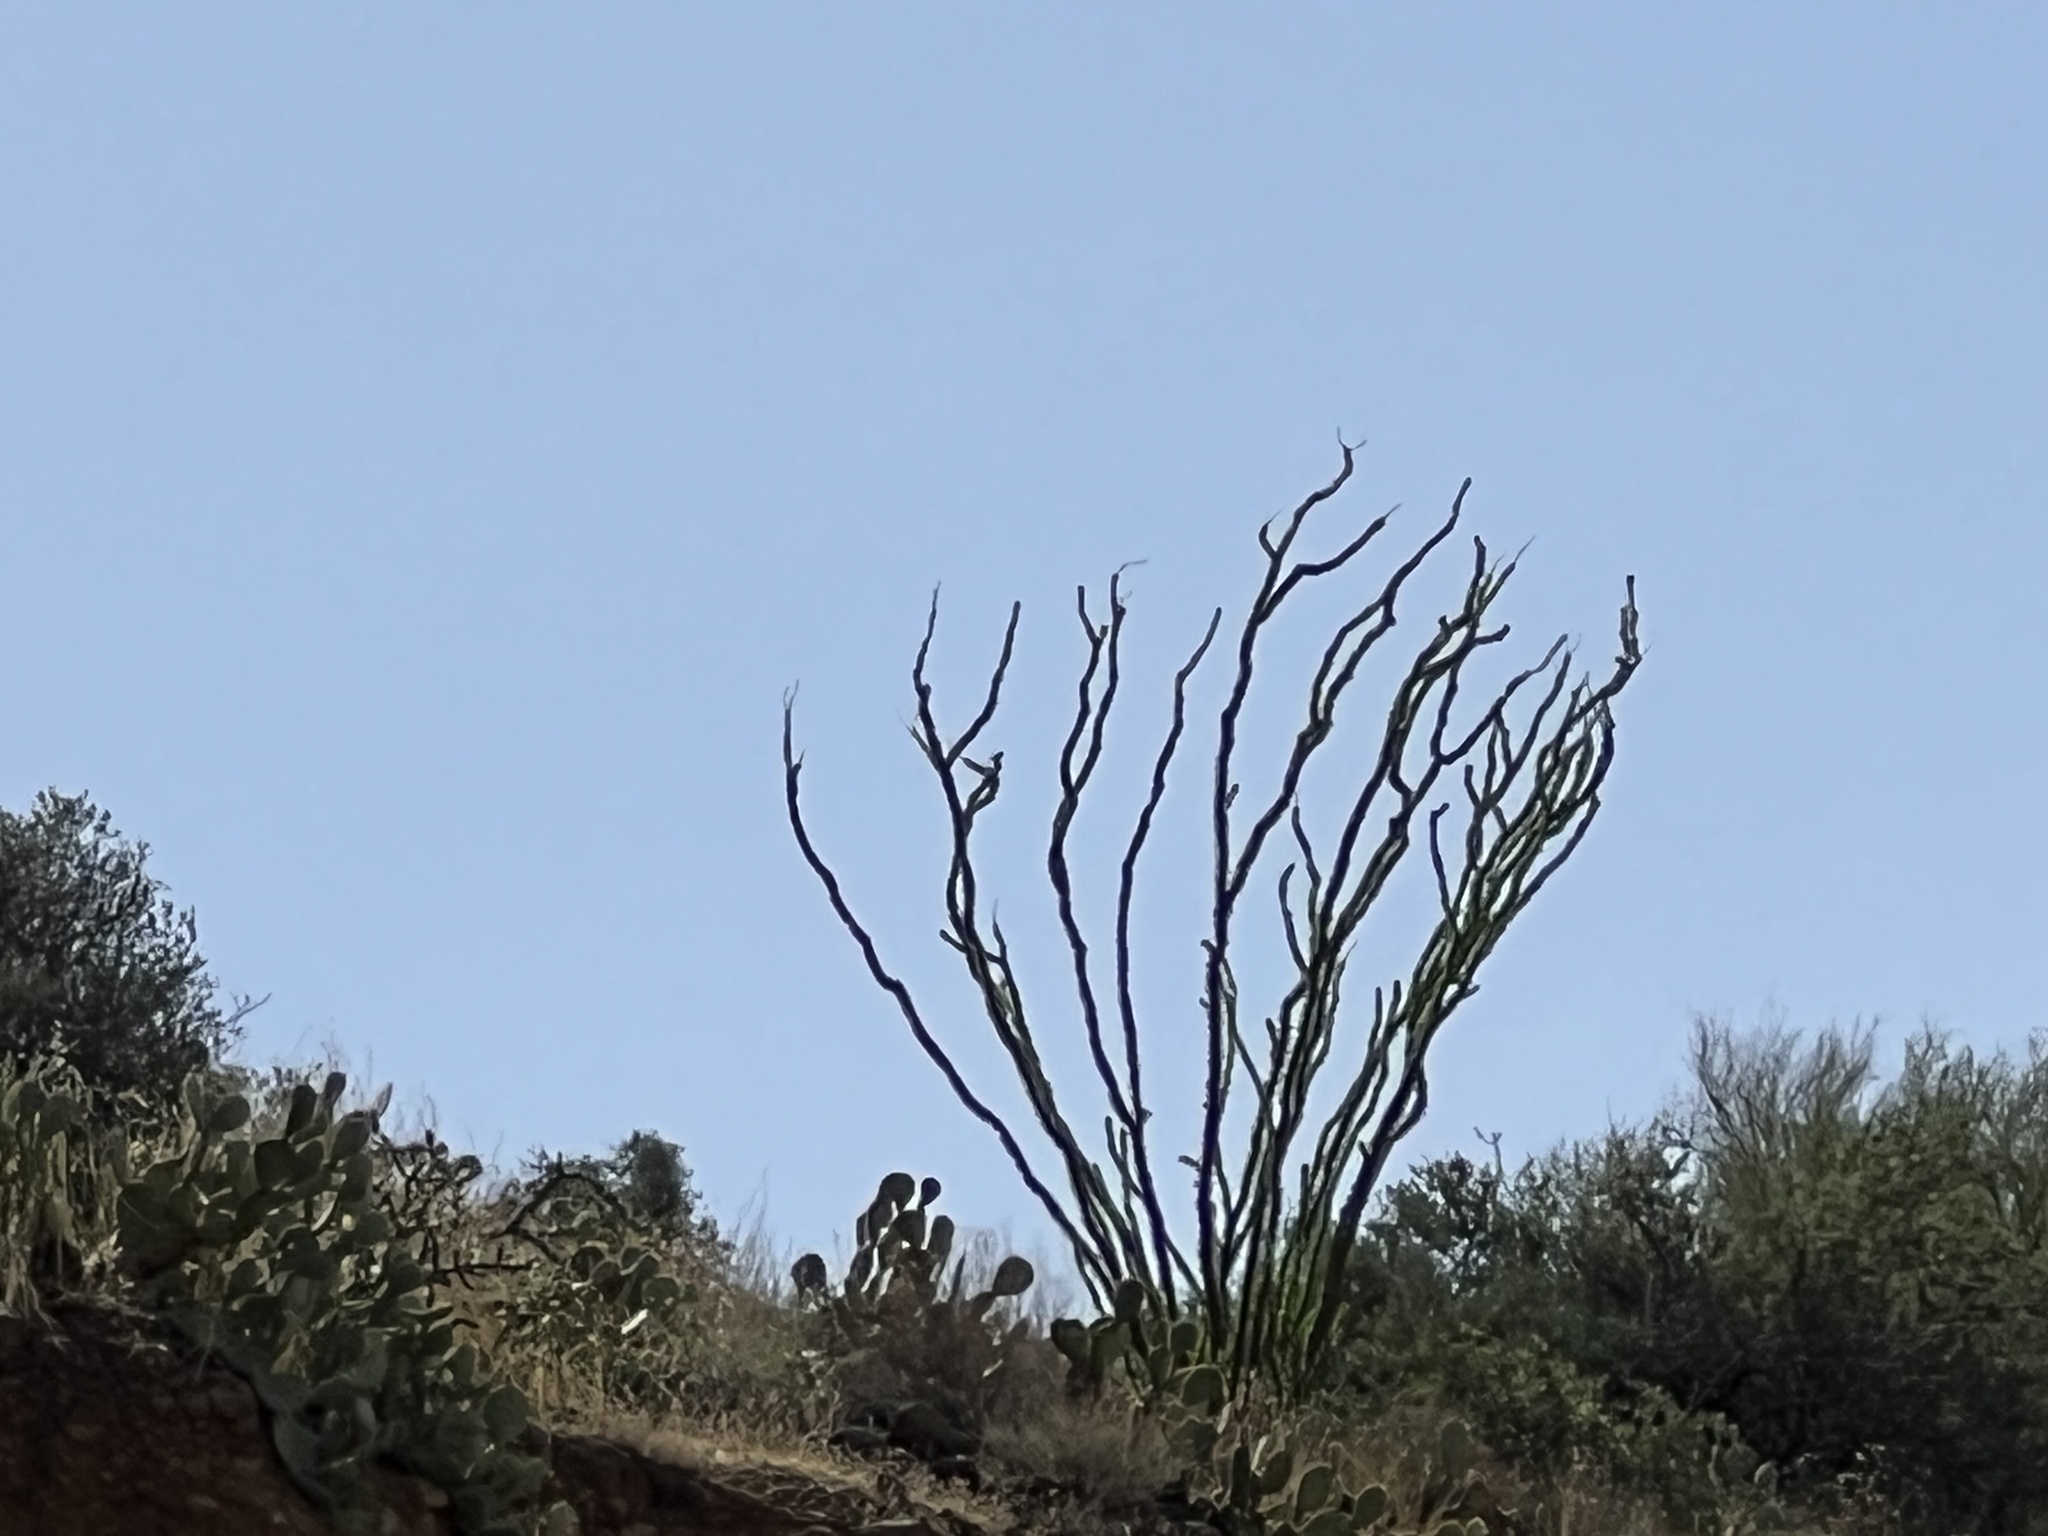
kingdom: Plantae
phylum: Tracheophyta
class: Magnoliopsida
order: Ericales
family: Fouquieriaceae
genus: Fouquieria
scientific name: Fouquieria splendens
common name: Vine-cactus
